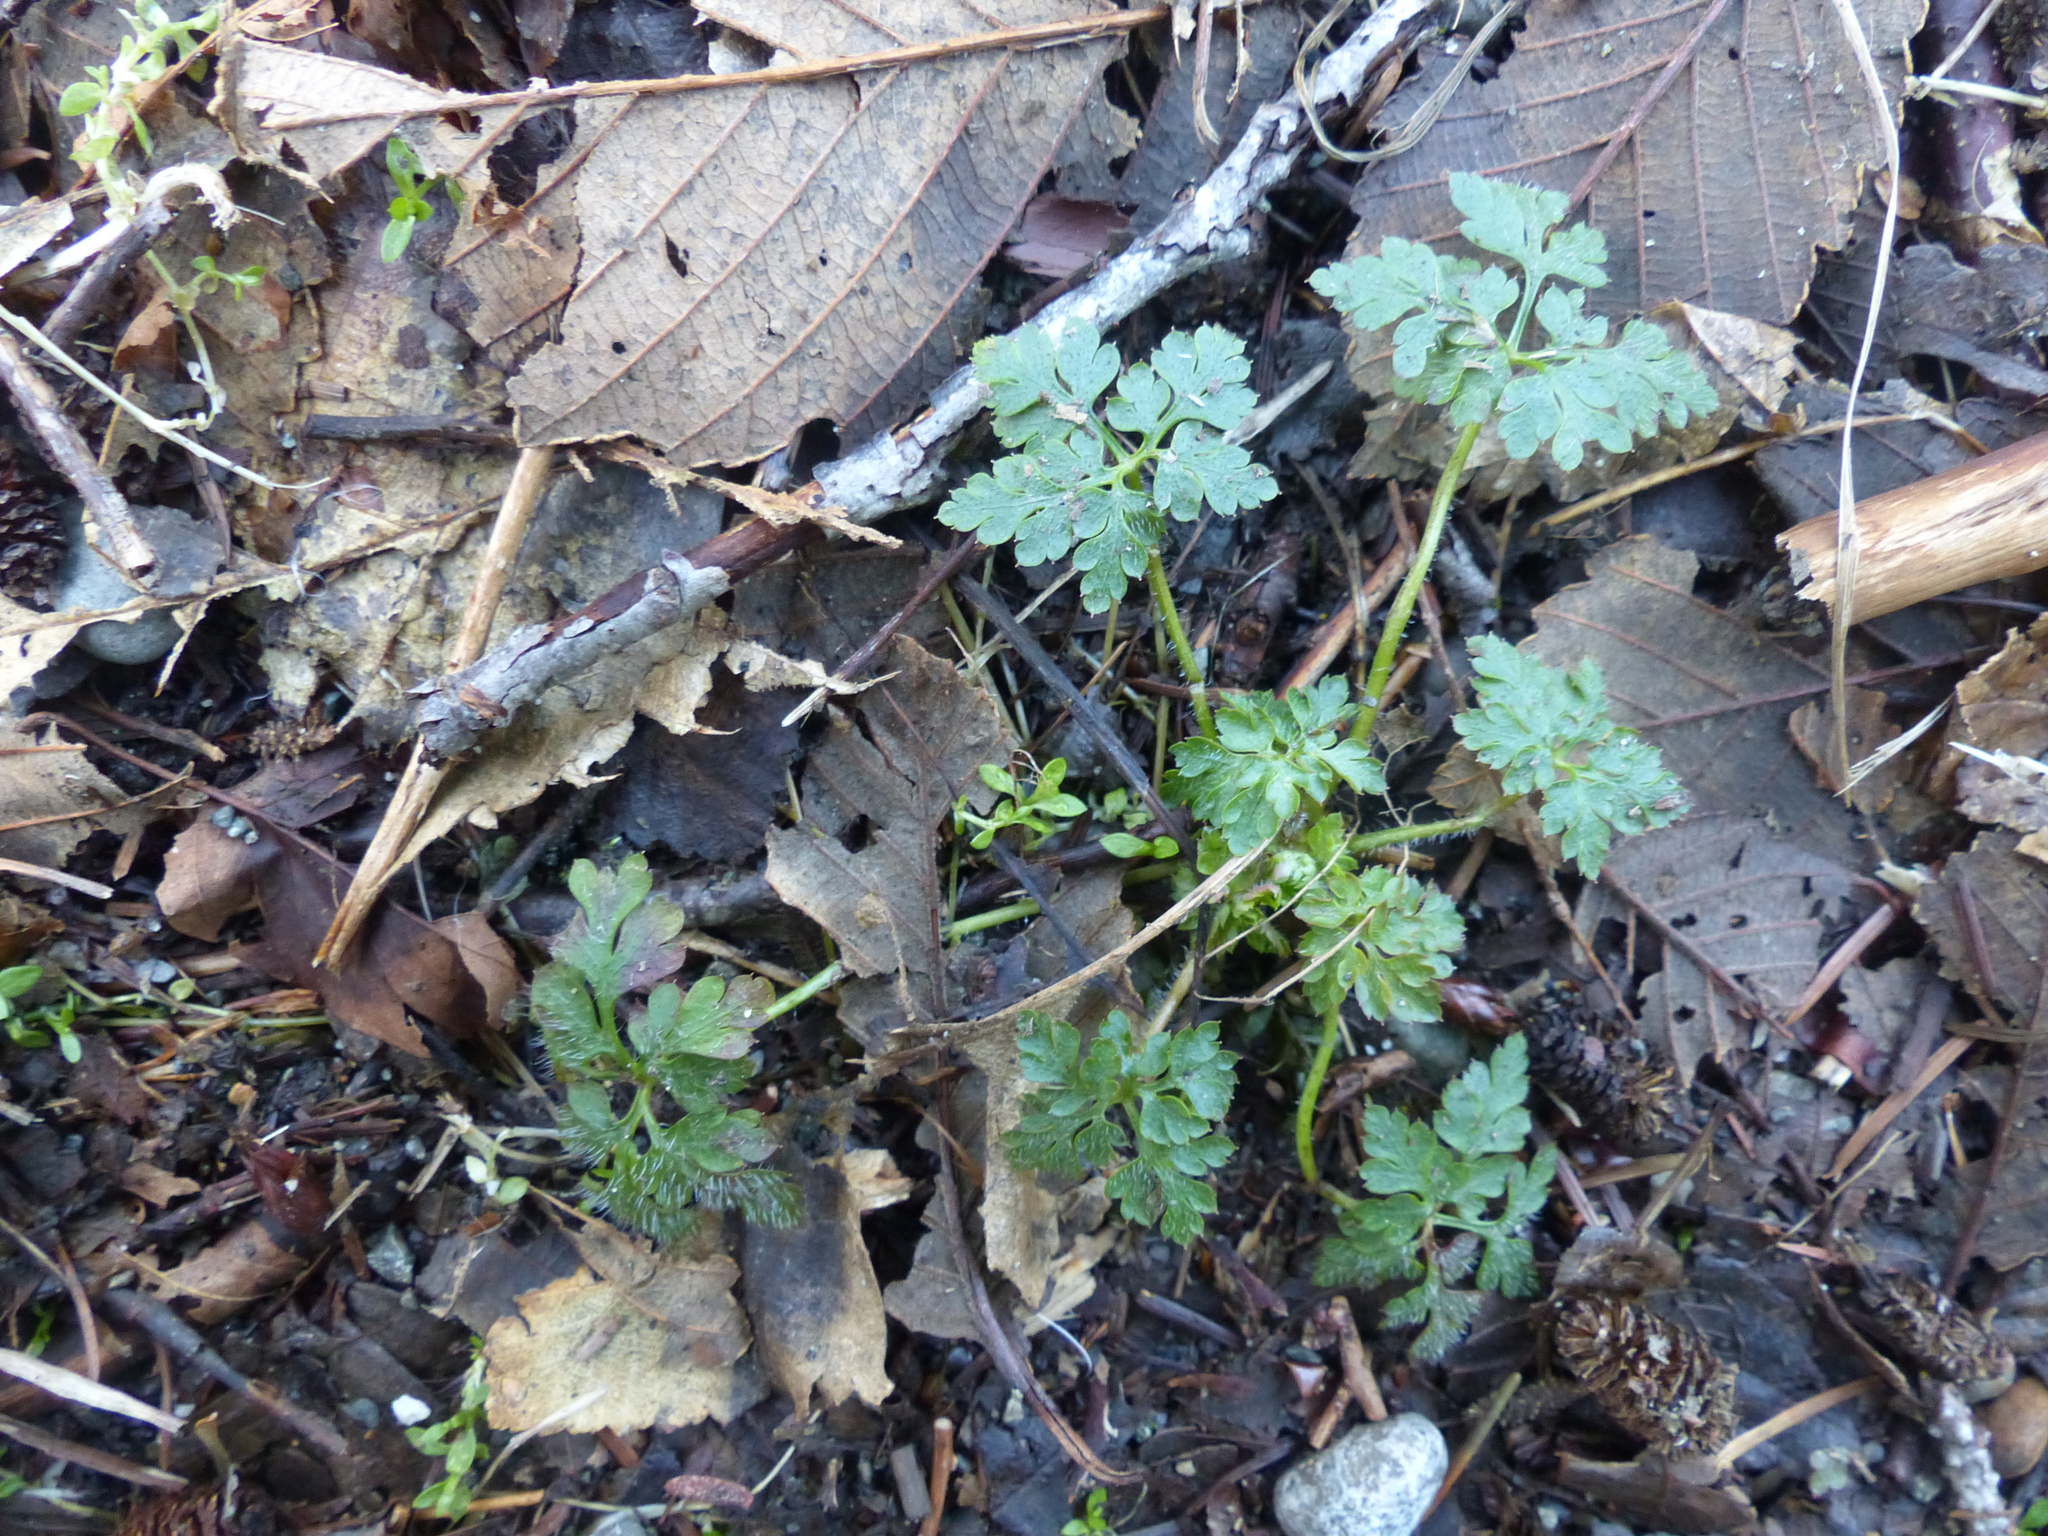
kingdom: Plantae
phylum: Tracheophyta
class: Magnoliopsida
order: Geraniales
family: Geraniaceae
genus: Geranium
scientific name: Geranium robertianum
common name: Herb-robert
